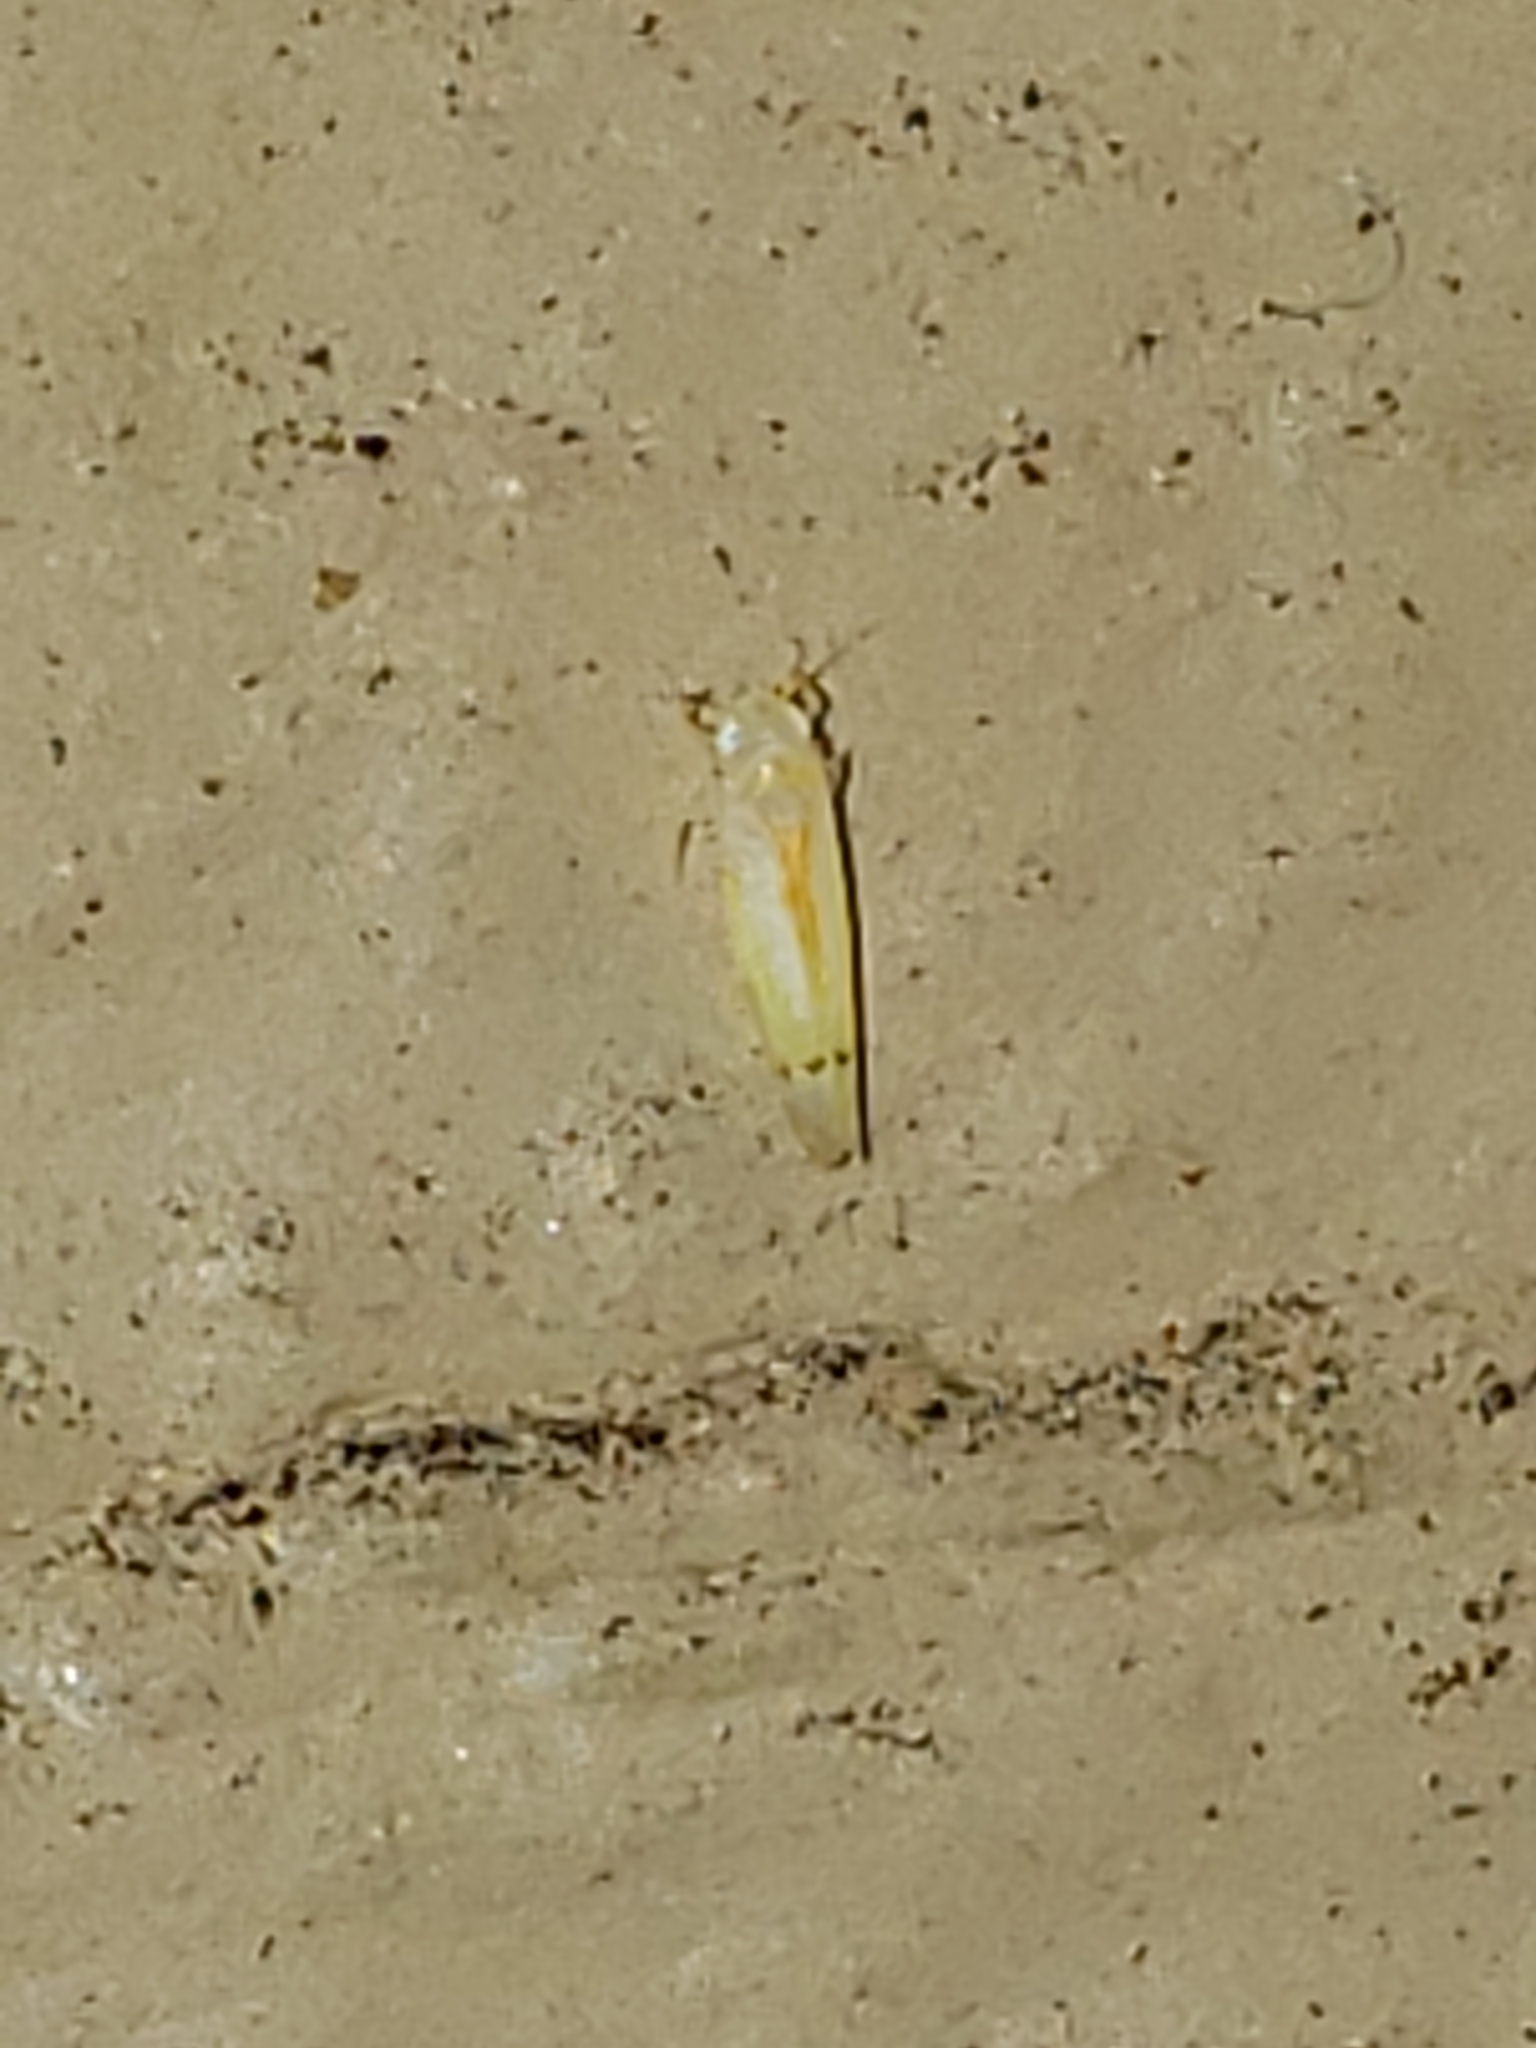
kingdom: Animalia
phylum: Arthropoda
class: Insecta
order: Hemiptera
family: Cicadellidae
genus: Ossiannilssonola
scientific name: Ossiannilssonola australis
